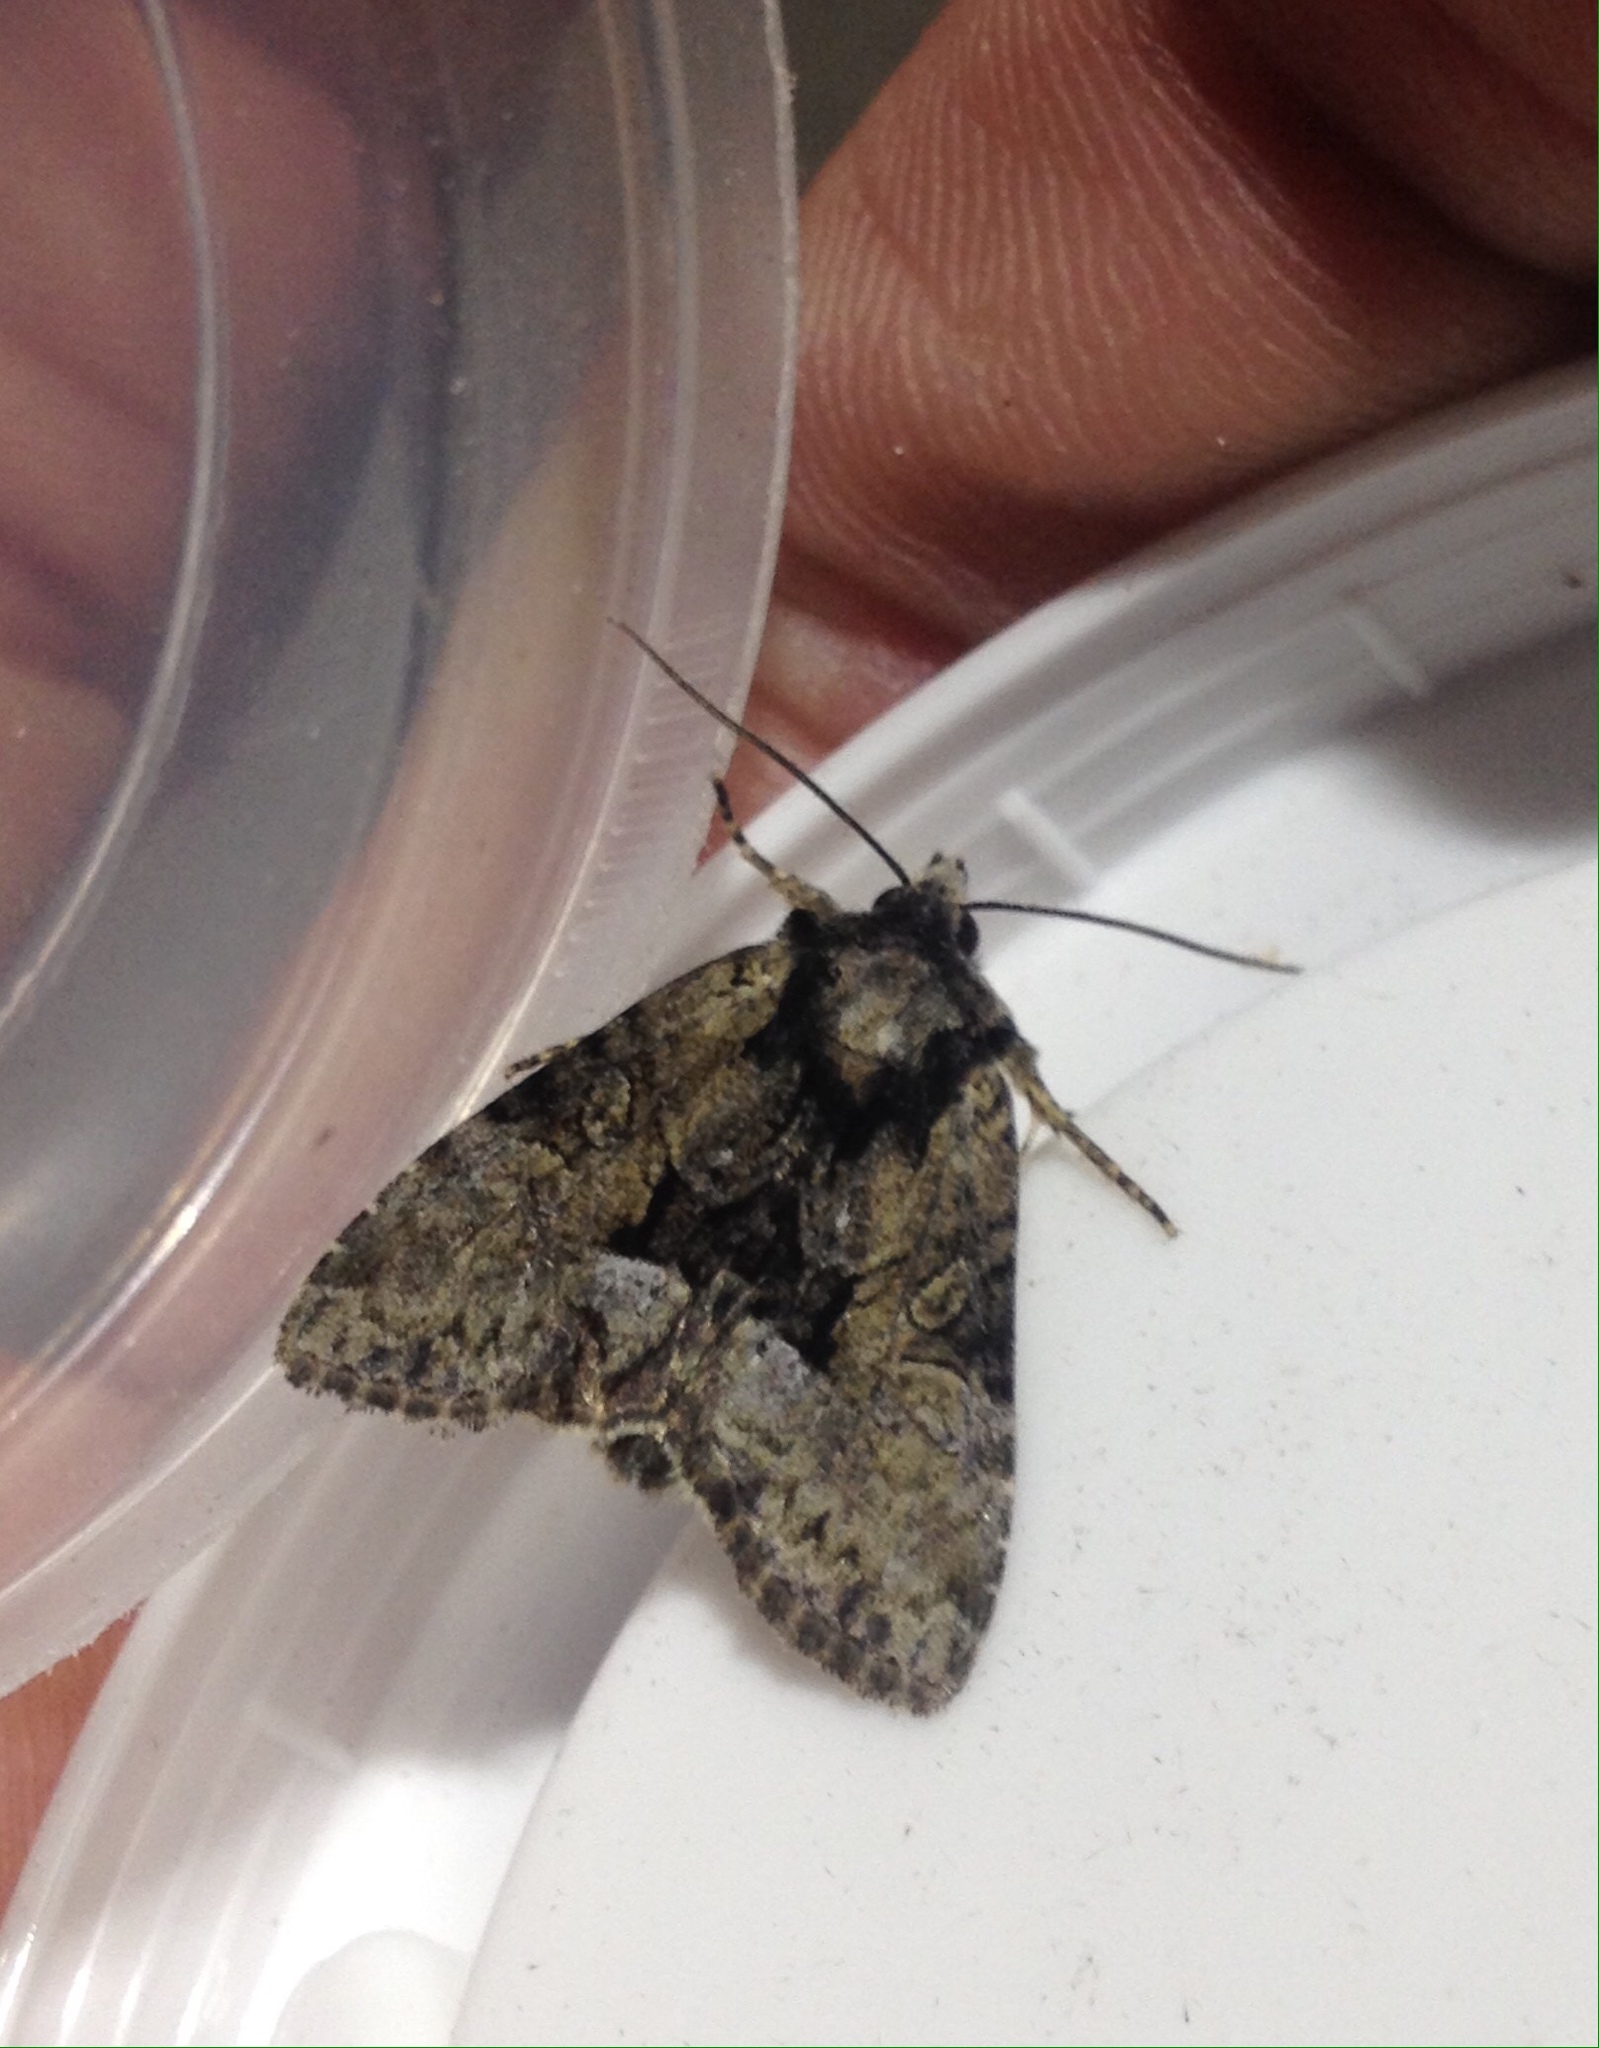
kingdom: Animalia
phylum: Arthropoda
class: Insecta
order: Lepidoptera
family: Noctuidae
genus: Pabulatrix
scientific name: Pabulatrix pabulatricula
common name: Union rustic
